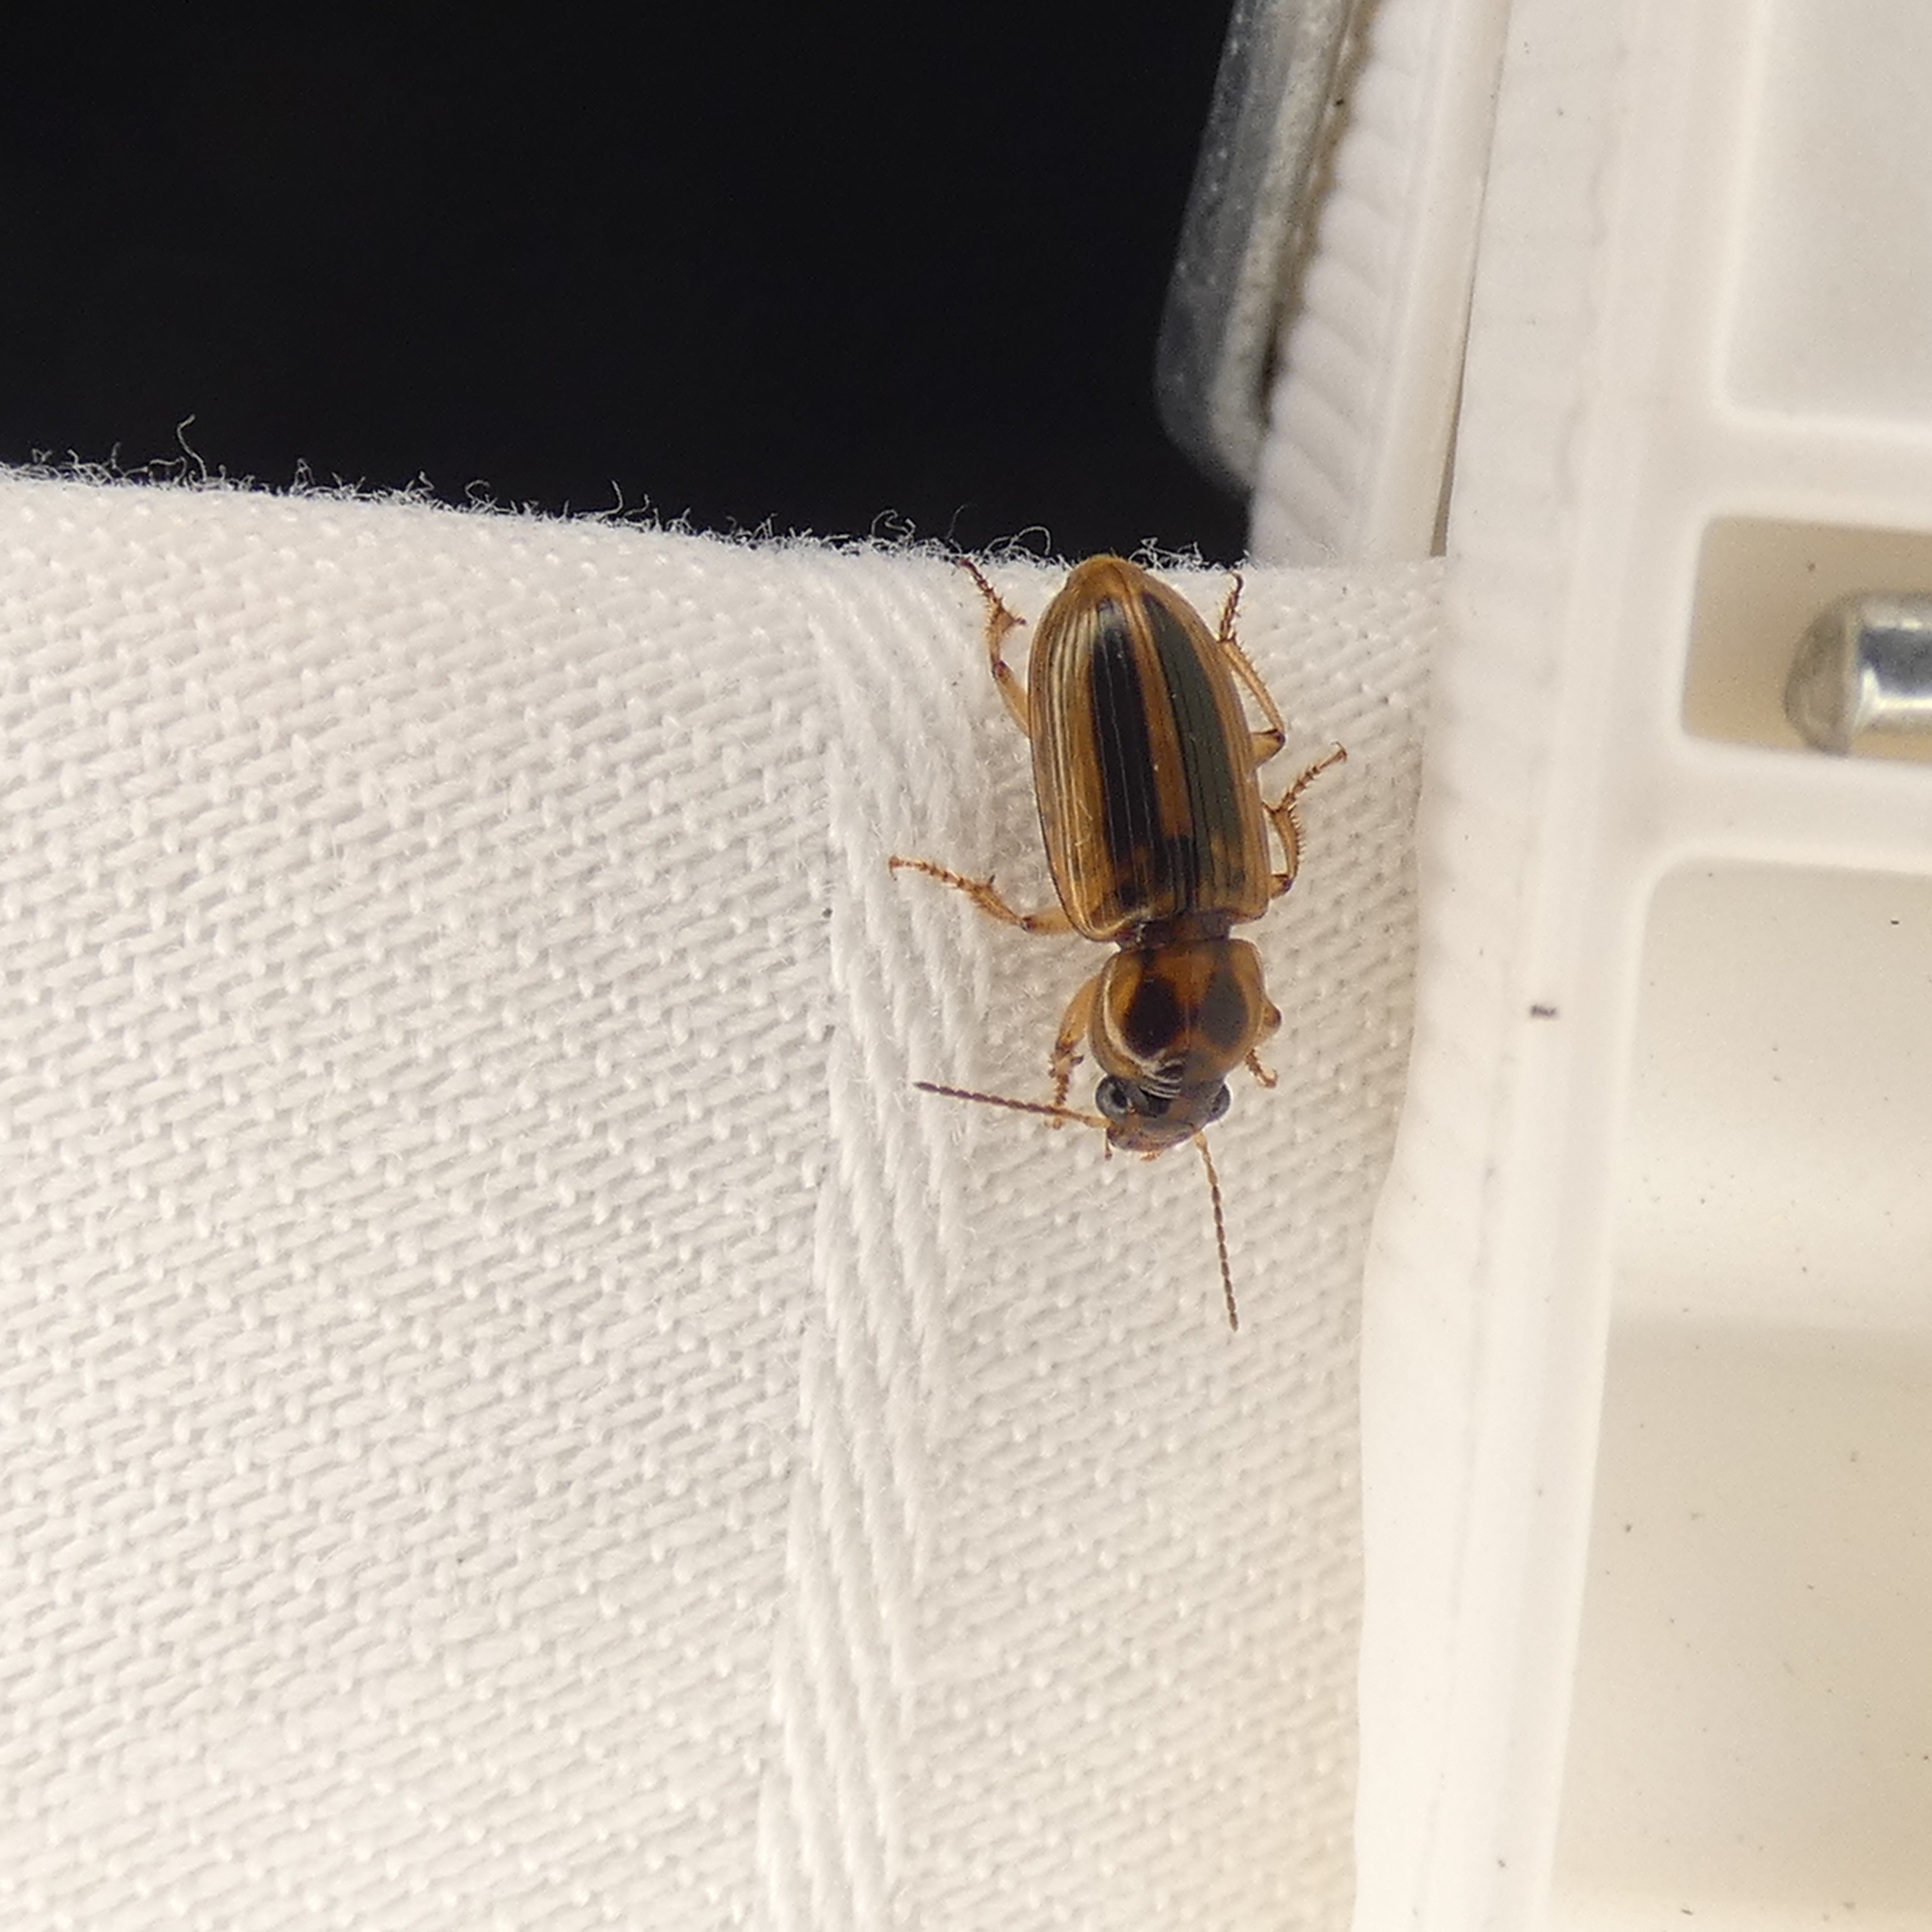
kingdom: Animalia
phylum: Arthropoda
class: Insecta
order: Coleoptera
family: Carabidae
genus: Stenolophus
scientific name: Stenolophus lineola
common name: Lined stenolophus
